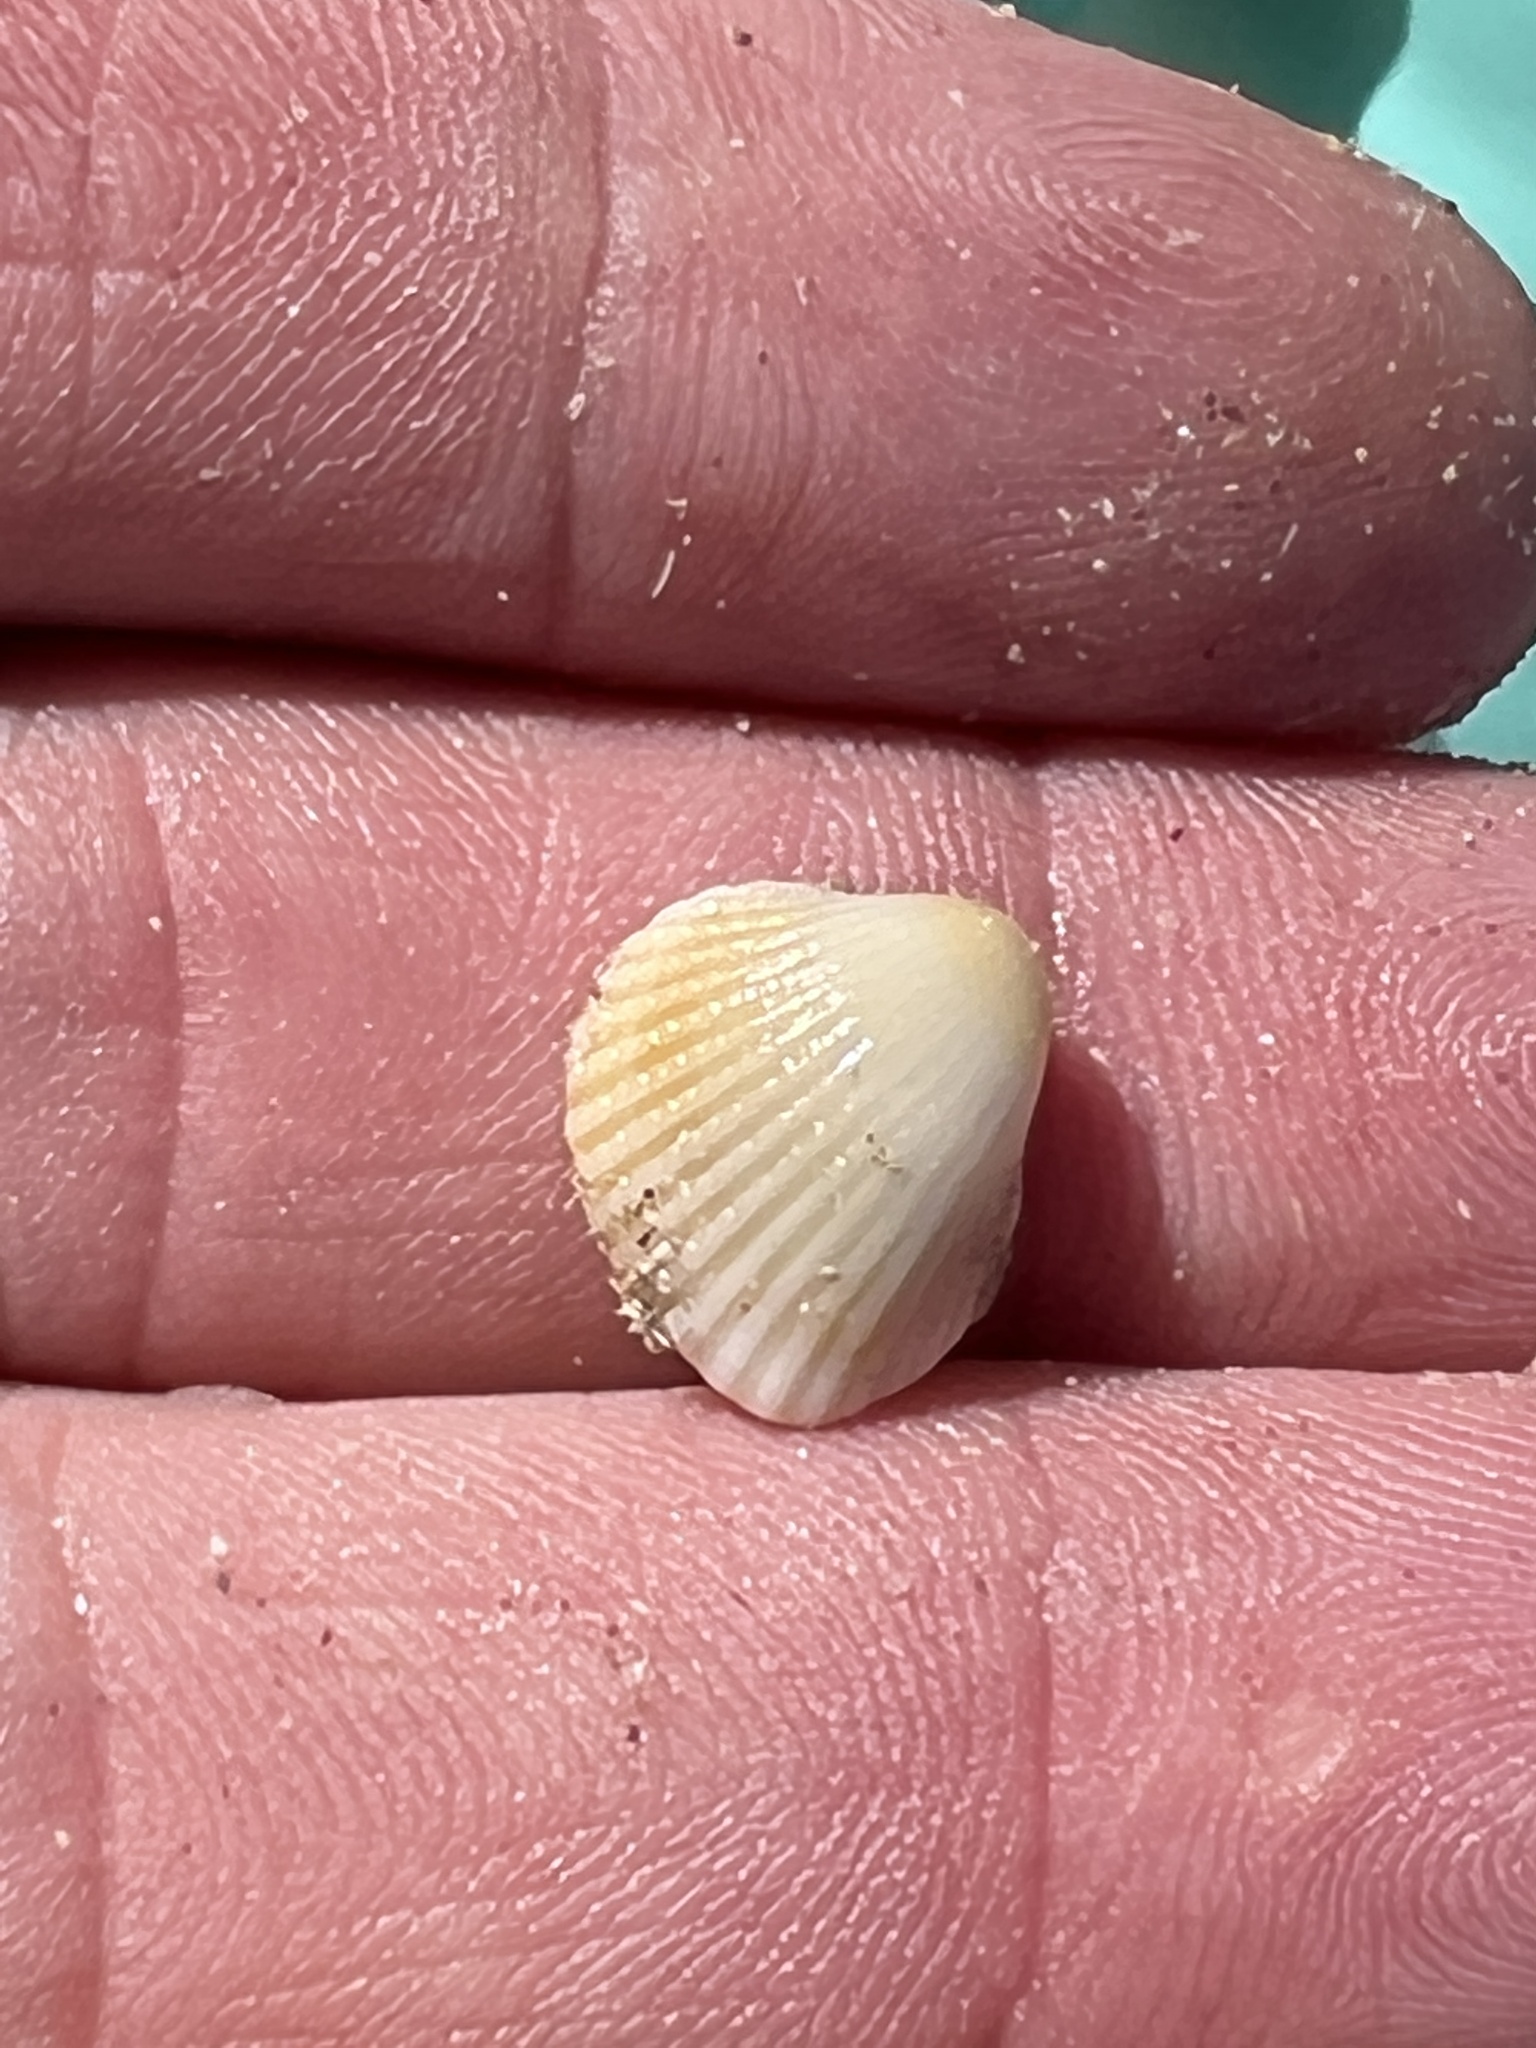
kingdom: Animalia
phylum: Mollusca
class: Bivalvia
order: Arcida
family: Arcidae
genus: Anadara
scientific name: Anadara chemnitzii
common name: Chemnitz's triangular ark
